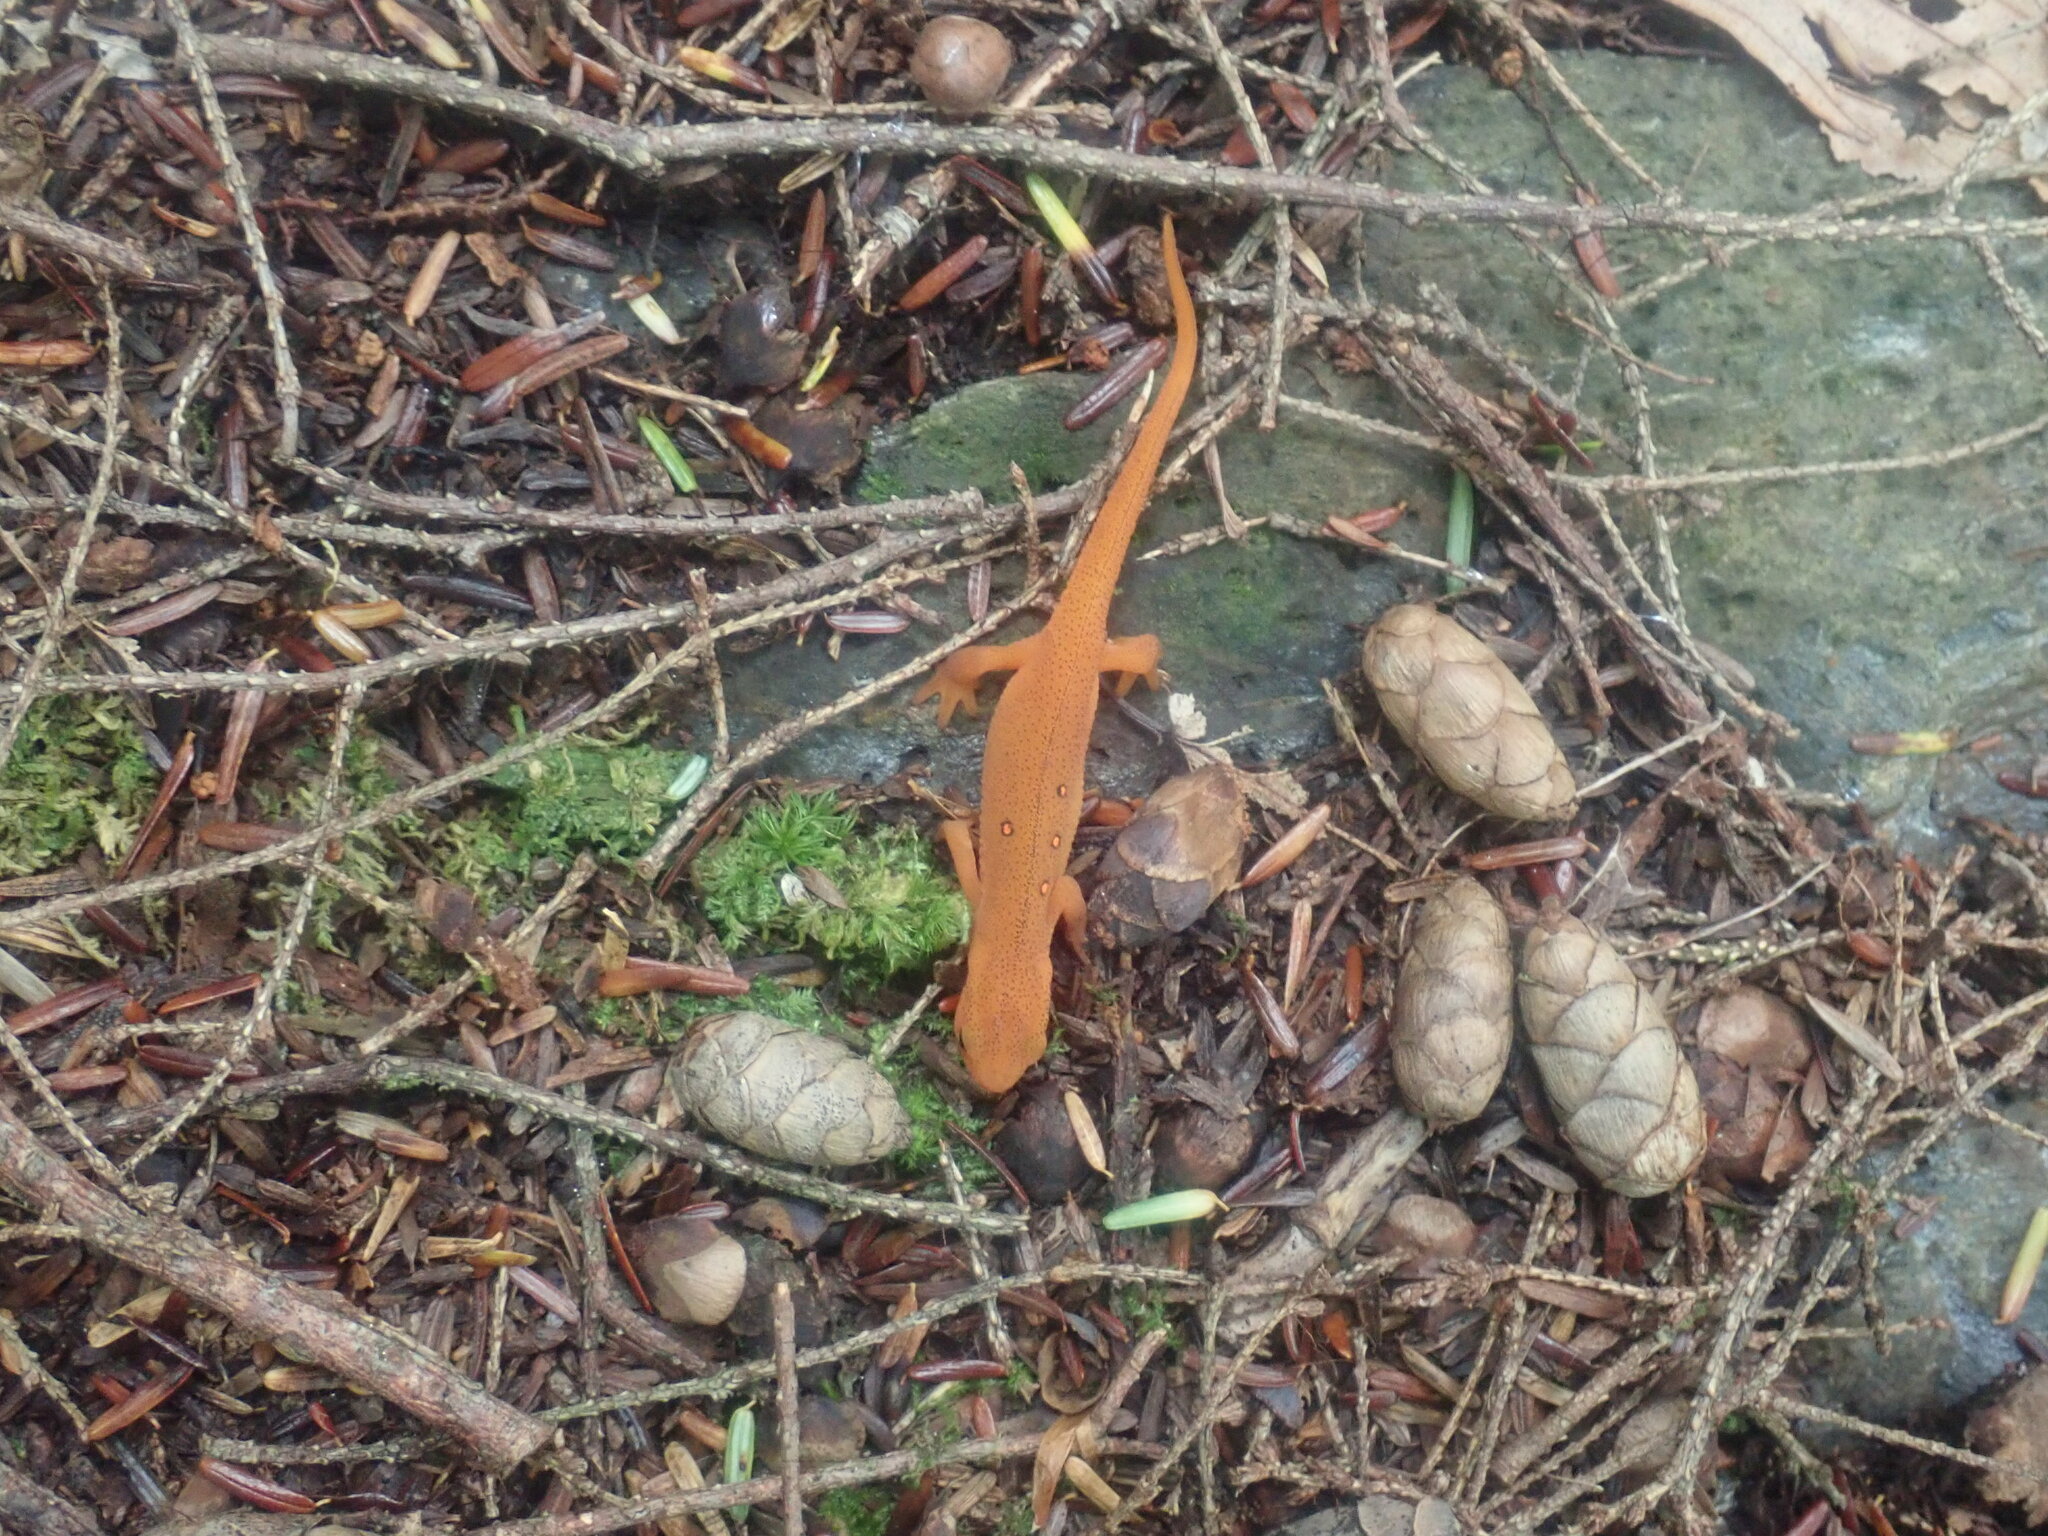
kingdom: Animalia
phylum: Chordata
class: Amphibia
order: Caudata
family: Salamandridae
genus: Notophthalmus
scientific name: Notophthalmus viridescens
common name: Eastern newt
